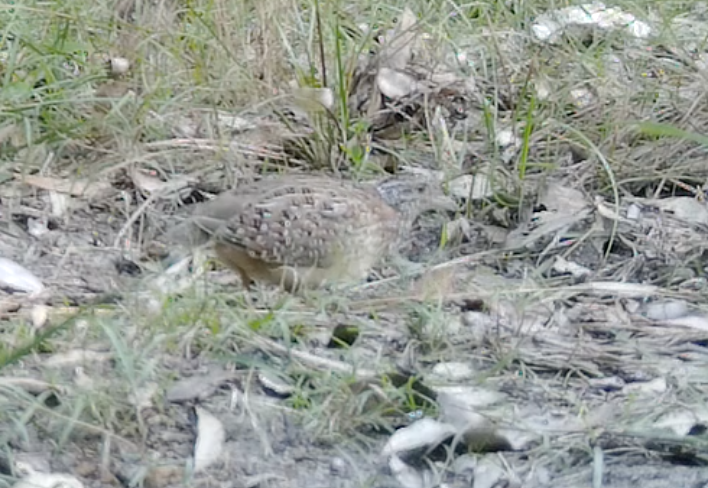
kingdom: Animalia
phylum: Chordata
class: Aves
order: Charadriiformes
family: Turnicidae
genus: Turnix
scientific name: Turnix varius
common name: Painted buttonquail
